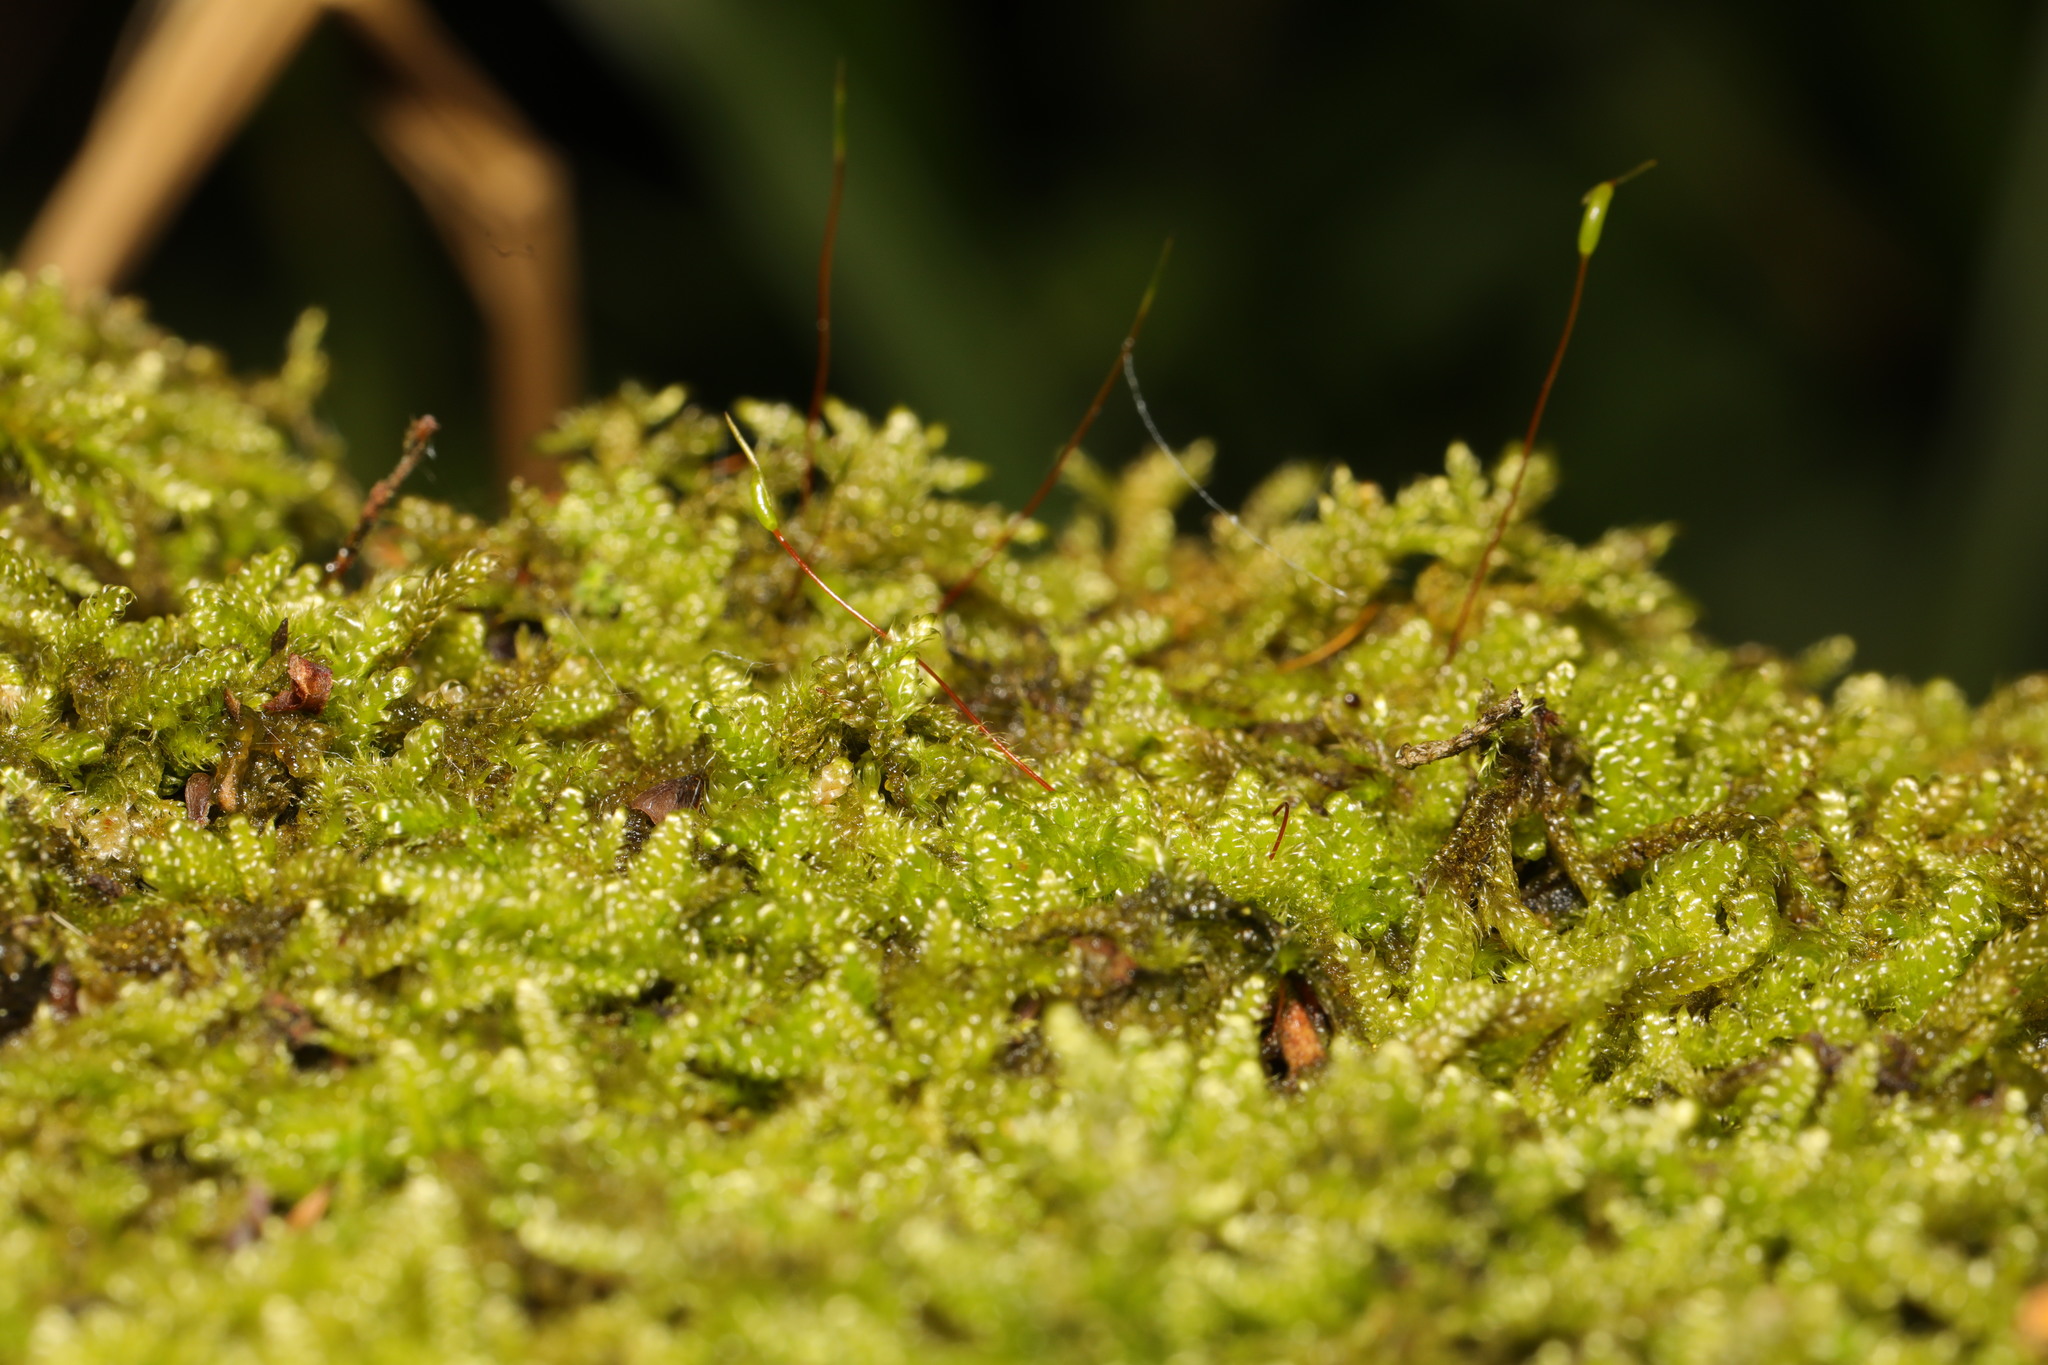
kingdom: Plantae
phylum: Bryophyta
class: Bryopsida
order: Hypnales
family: Hypnaceae
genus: Hypnum
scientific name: Hypnum cupressiforme
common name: Cypress-leaved plait-moss
